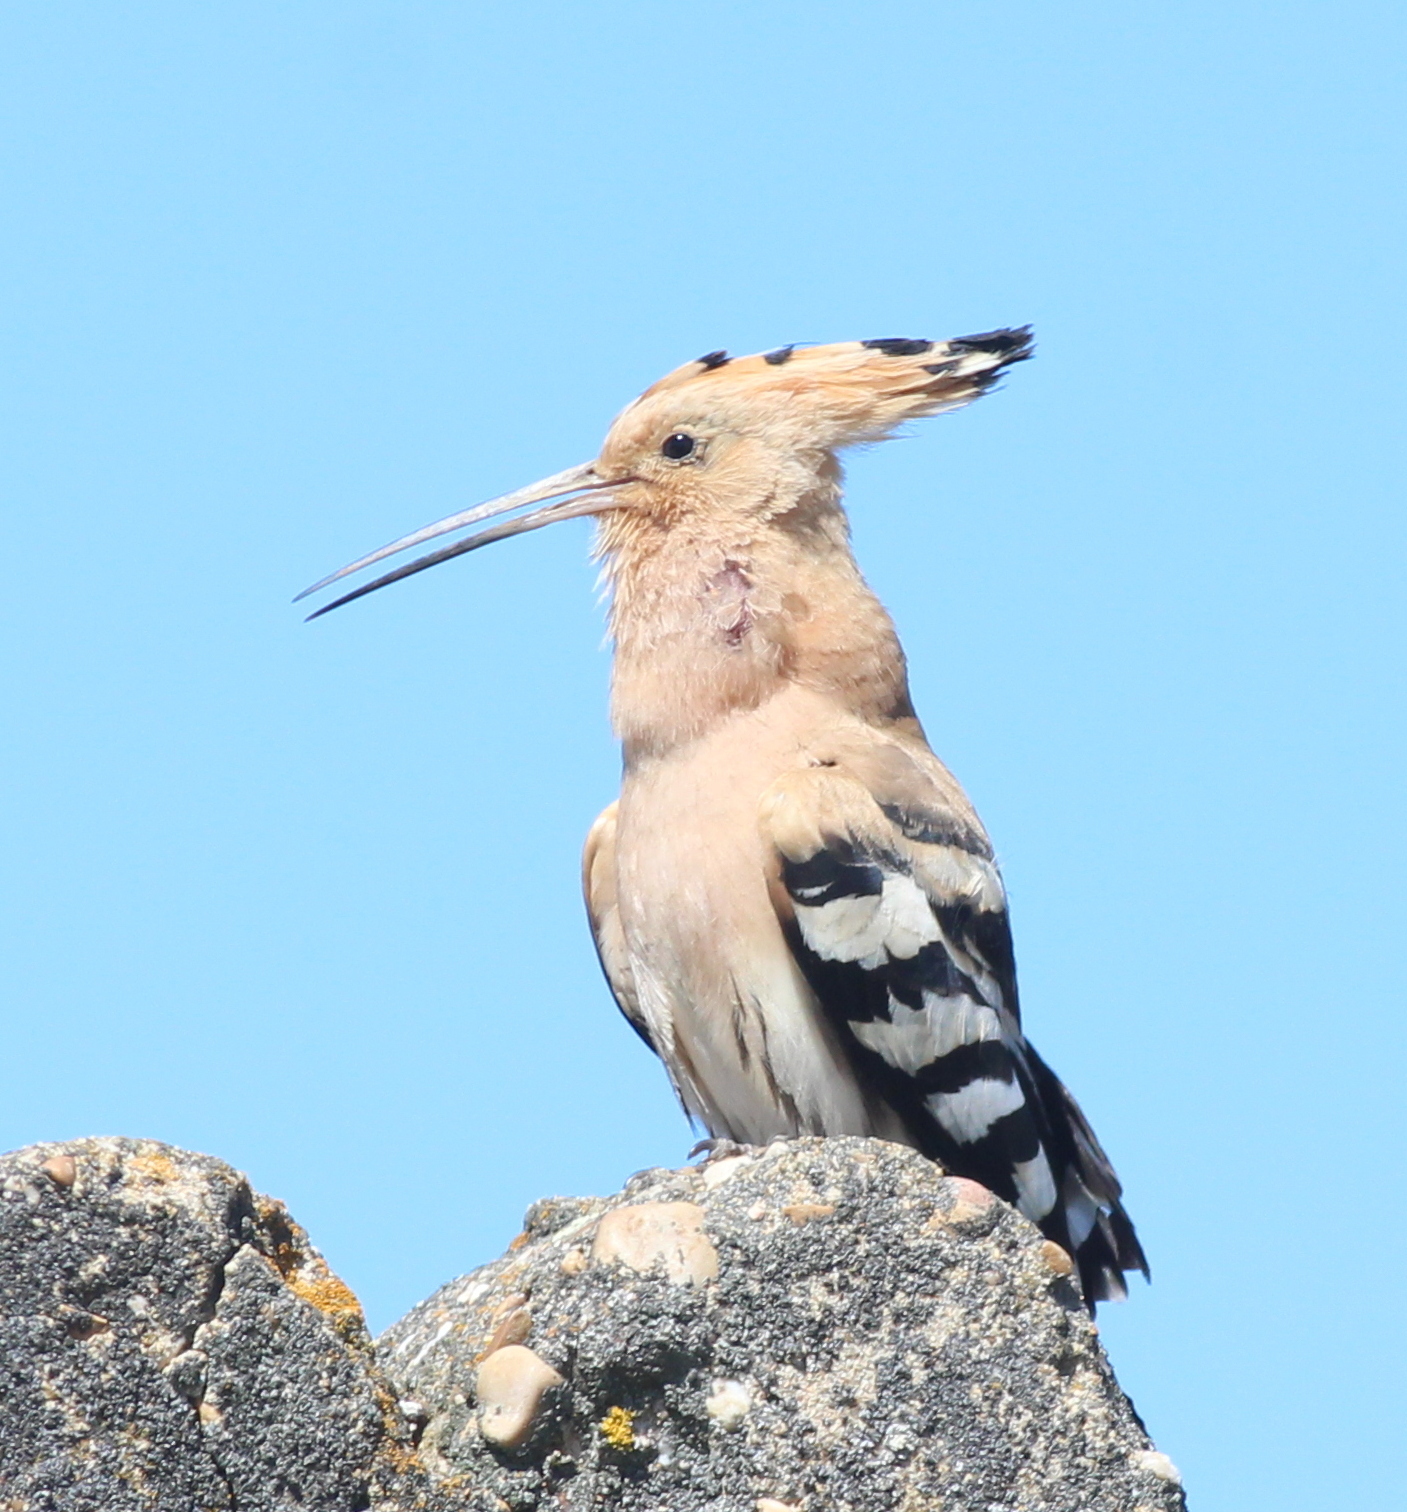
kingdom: Animalia
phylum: Chordata
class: Aves
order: Bucerotiformes
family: Upupidae
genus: Upupa
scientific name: Upupa epops
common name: Eurasian hoopoe
